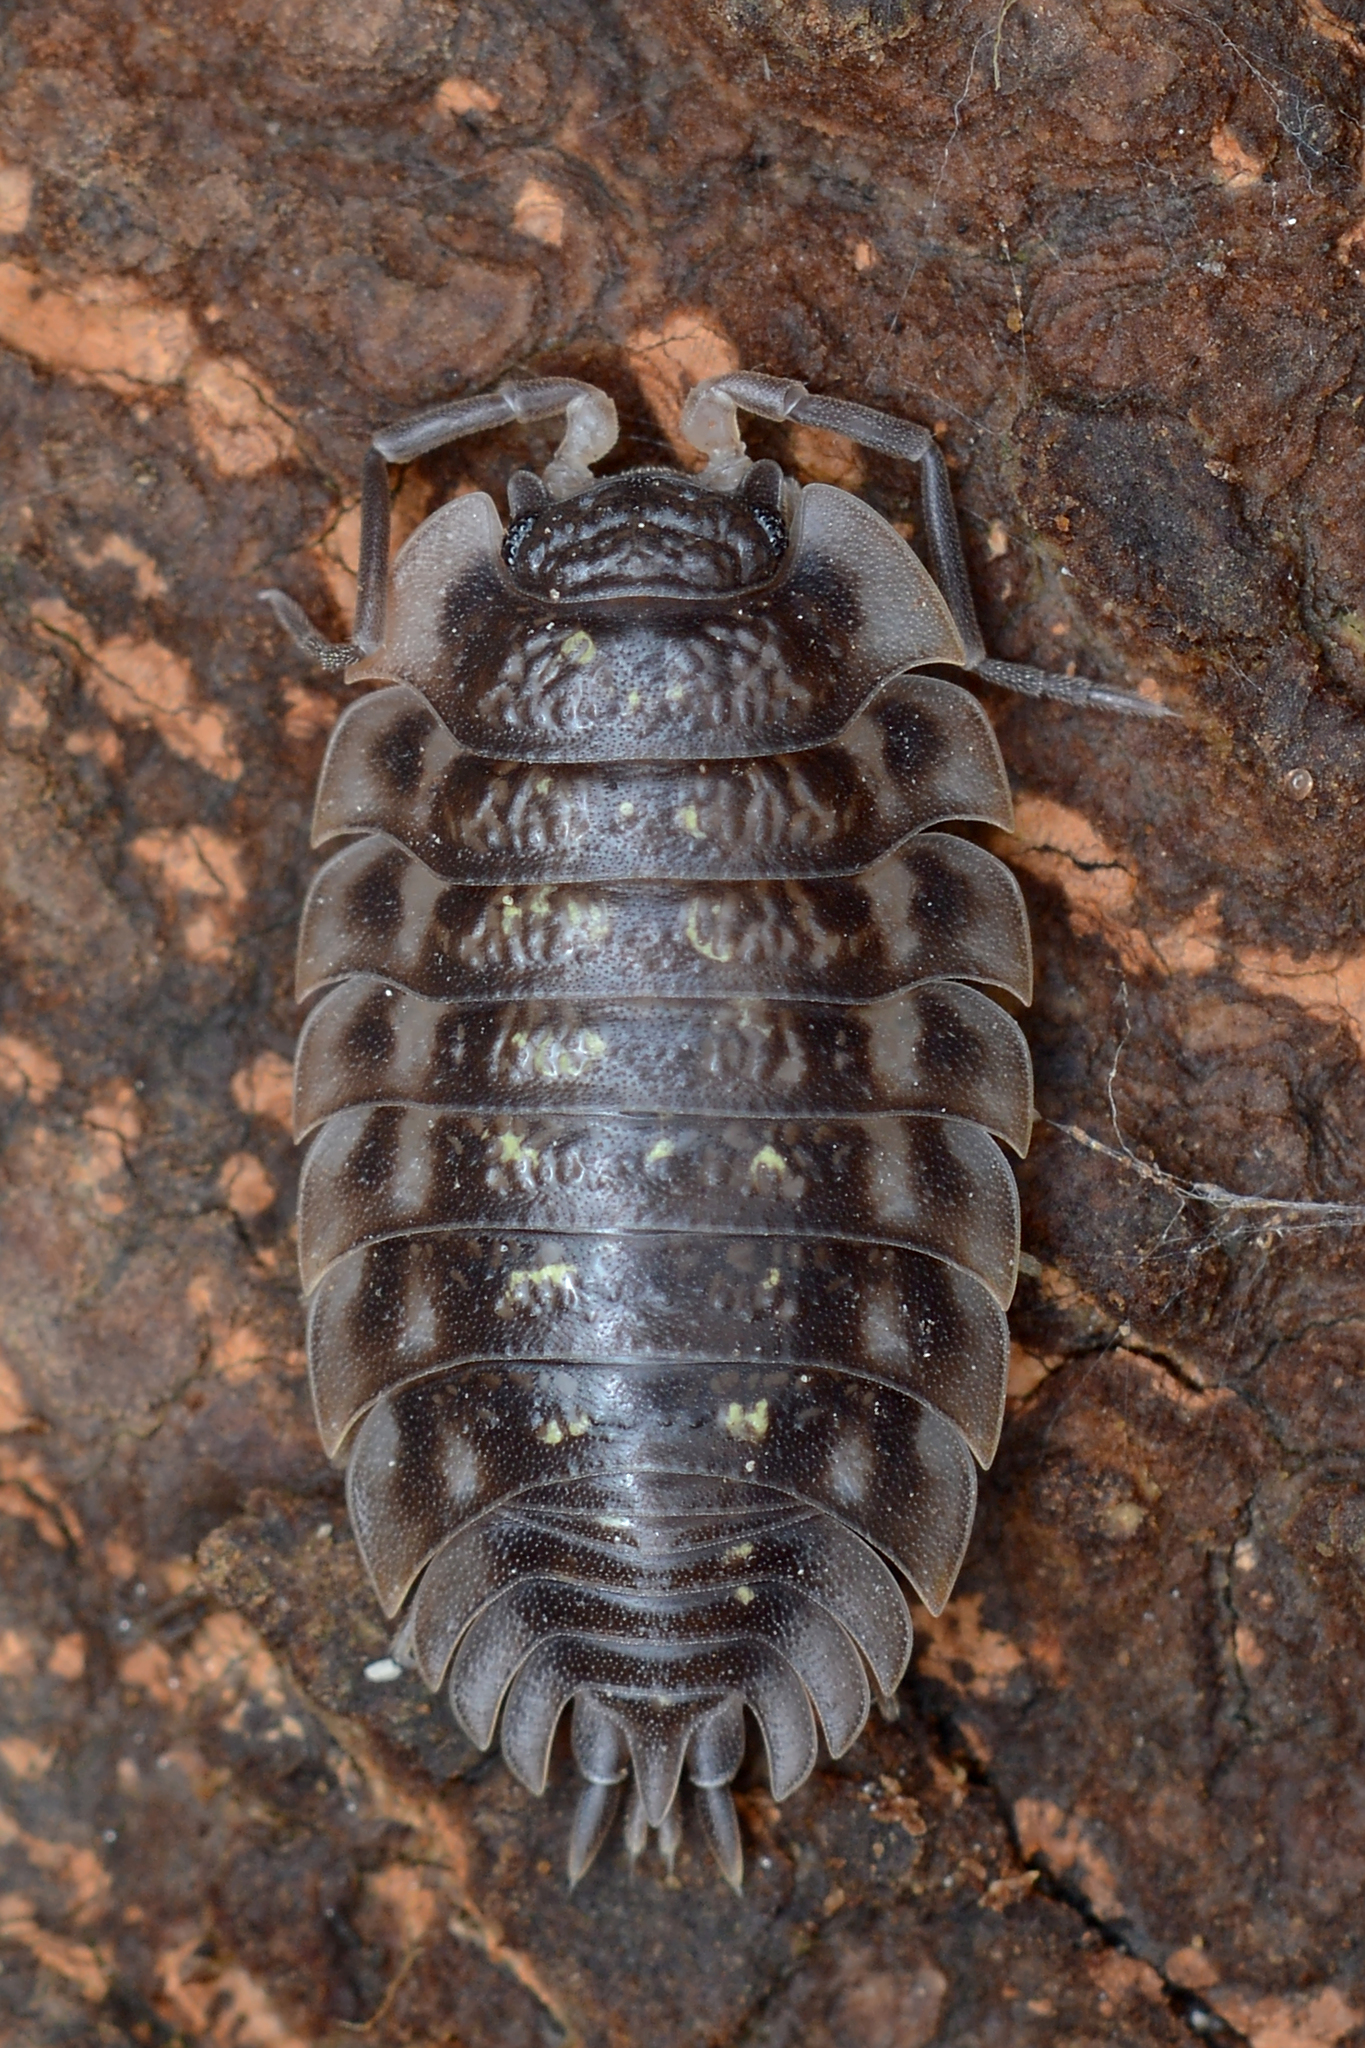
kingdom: Animalia
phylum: Arthropoda
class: Malacostraca
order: Isopoda
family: Oniscidae
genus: Oniscus
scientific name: Oniscus asellus
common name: Common shiny woodlouse
